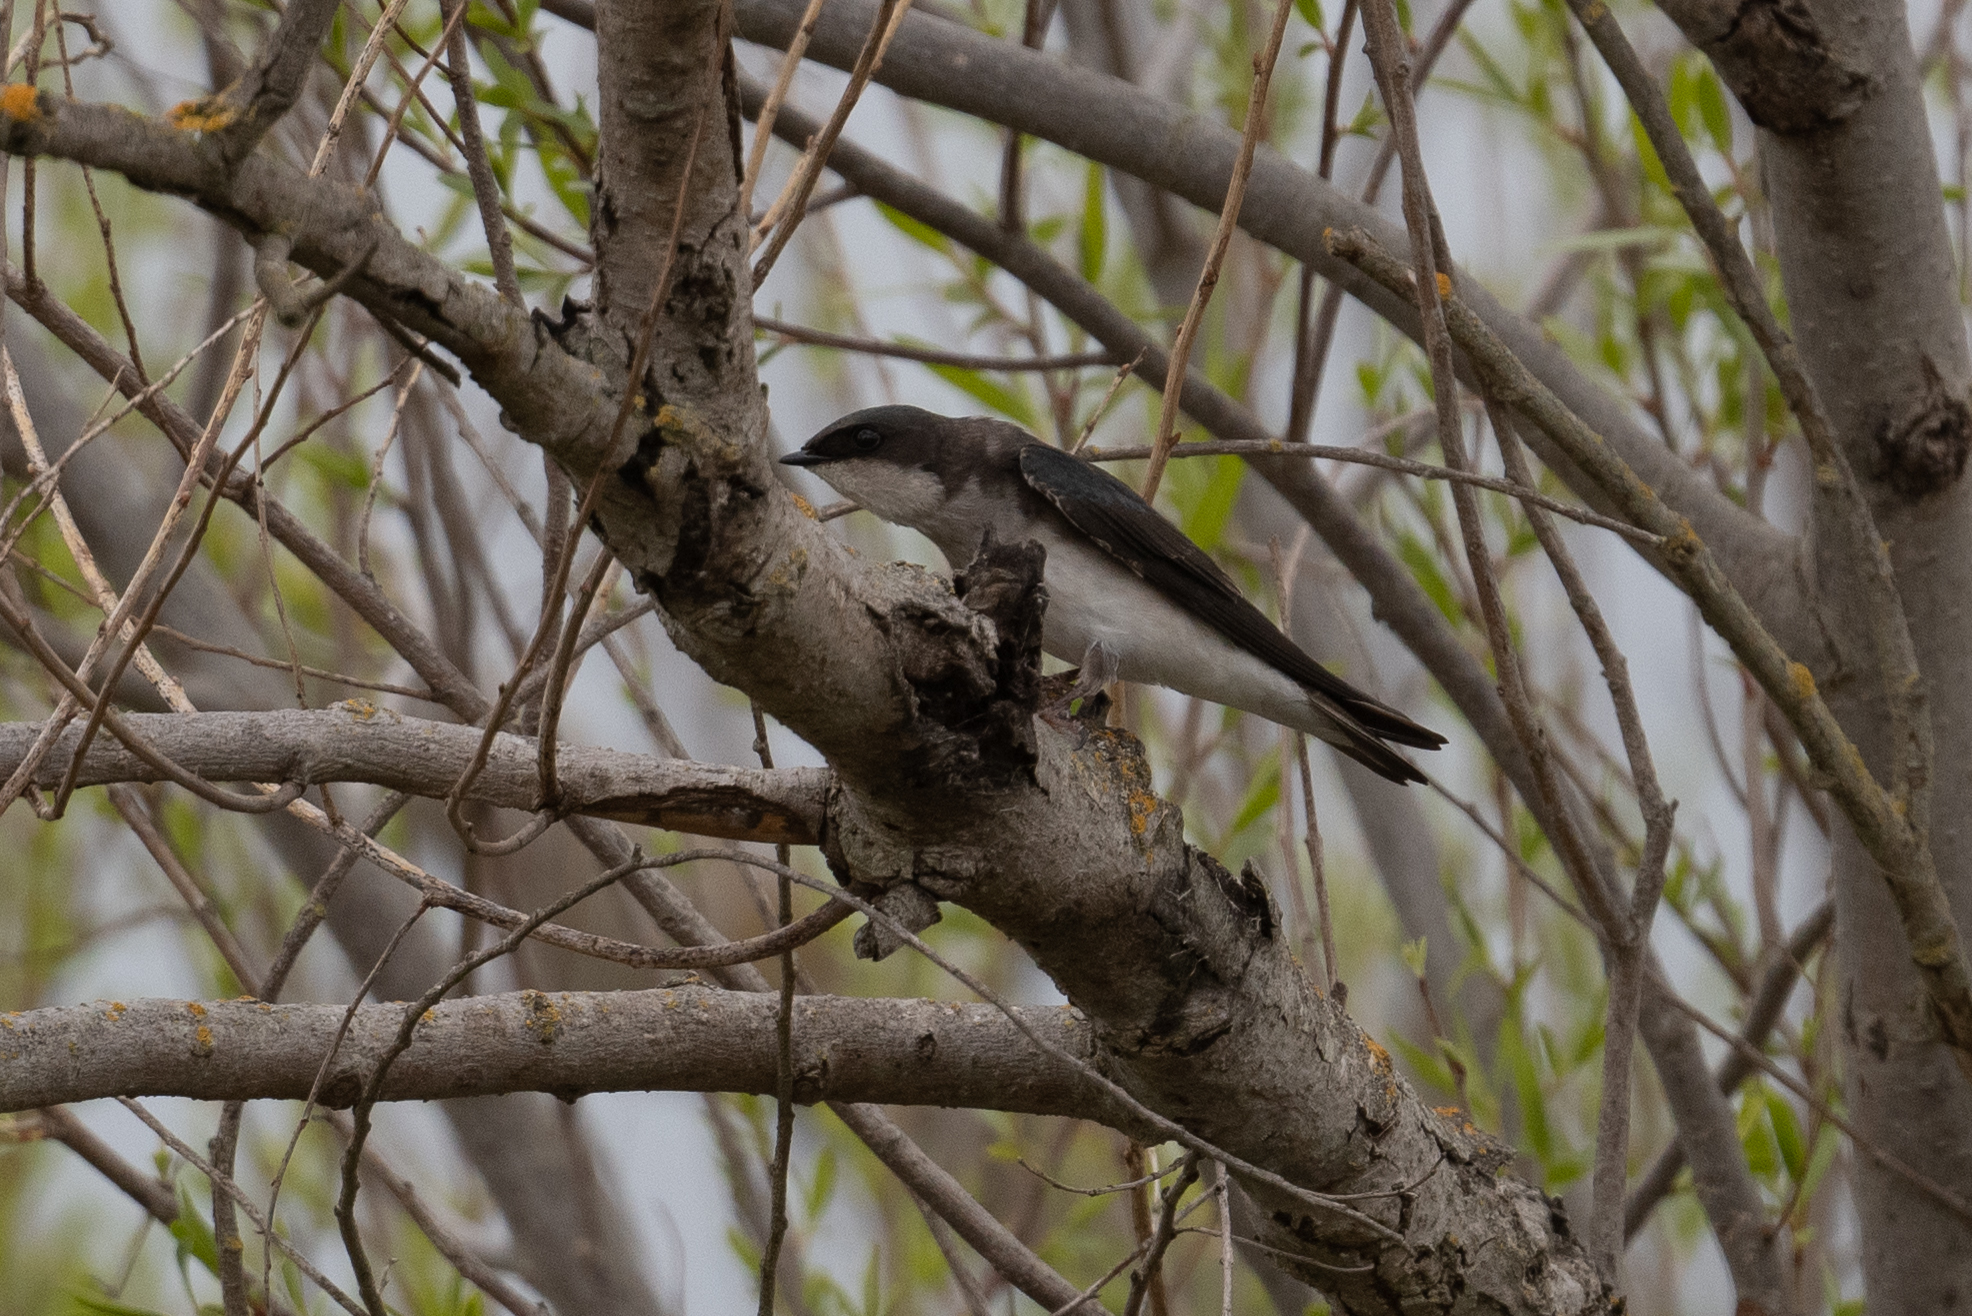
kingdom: Animalia
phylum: Chordata
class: Aves
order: Passeriformes
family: Hirundinidae
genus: Tachycineta
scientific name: Tachycineta bicolor
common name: Tree swallow
